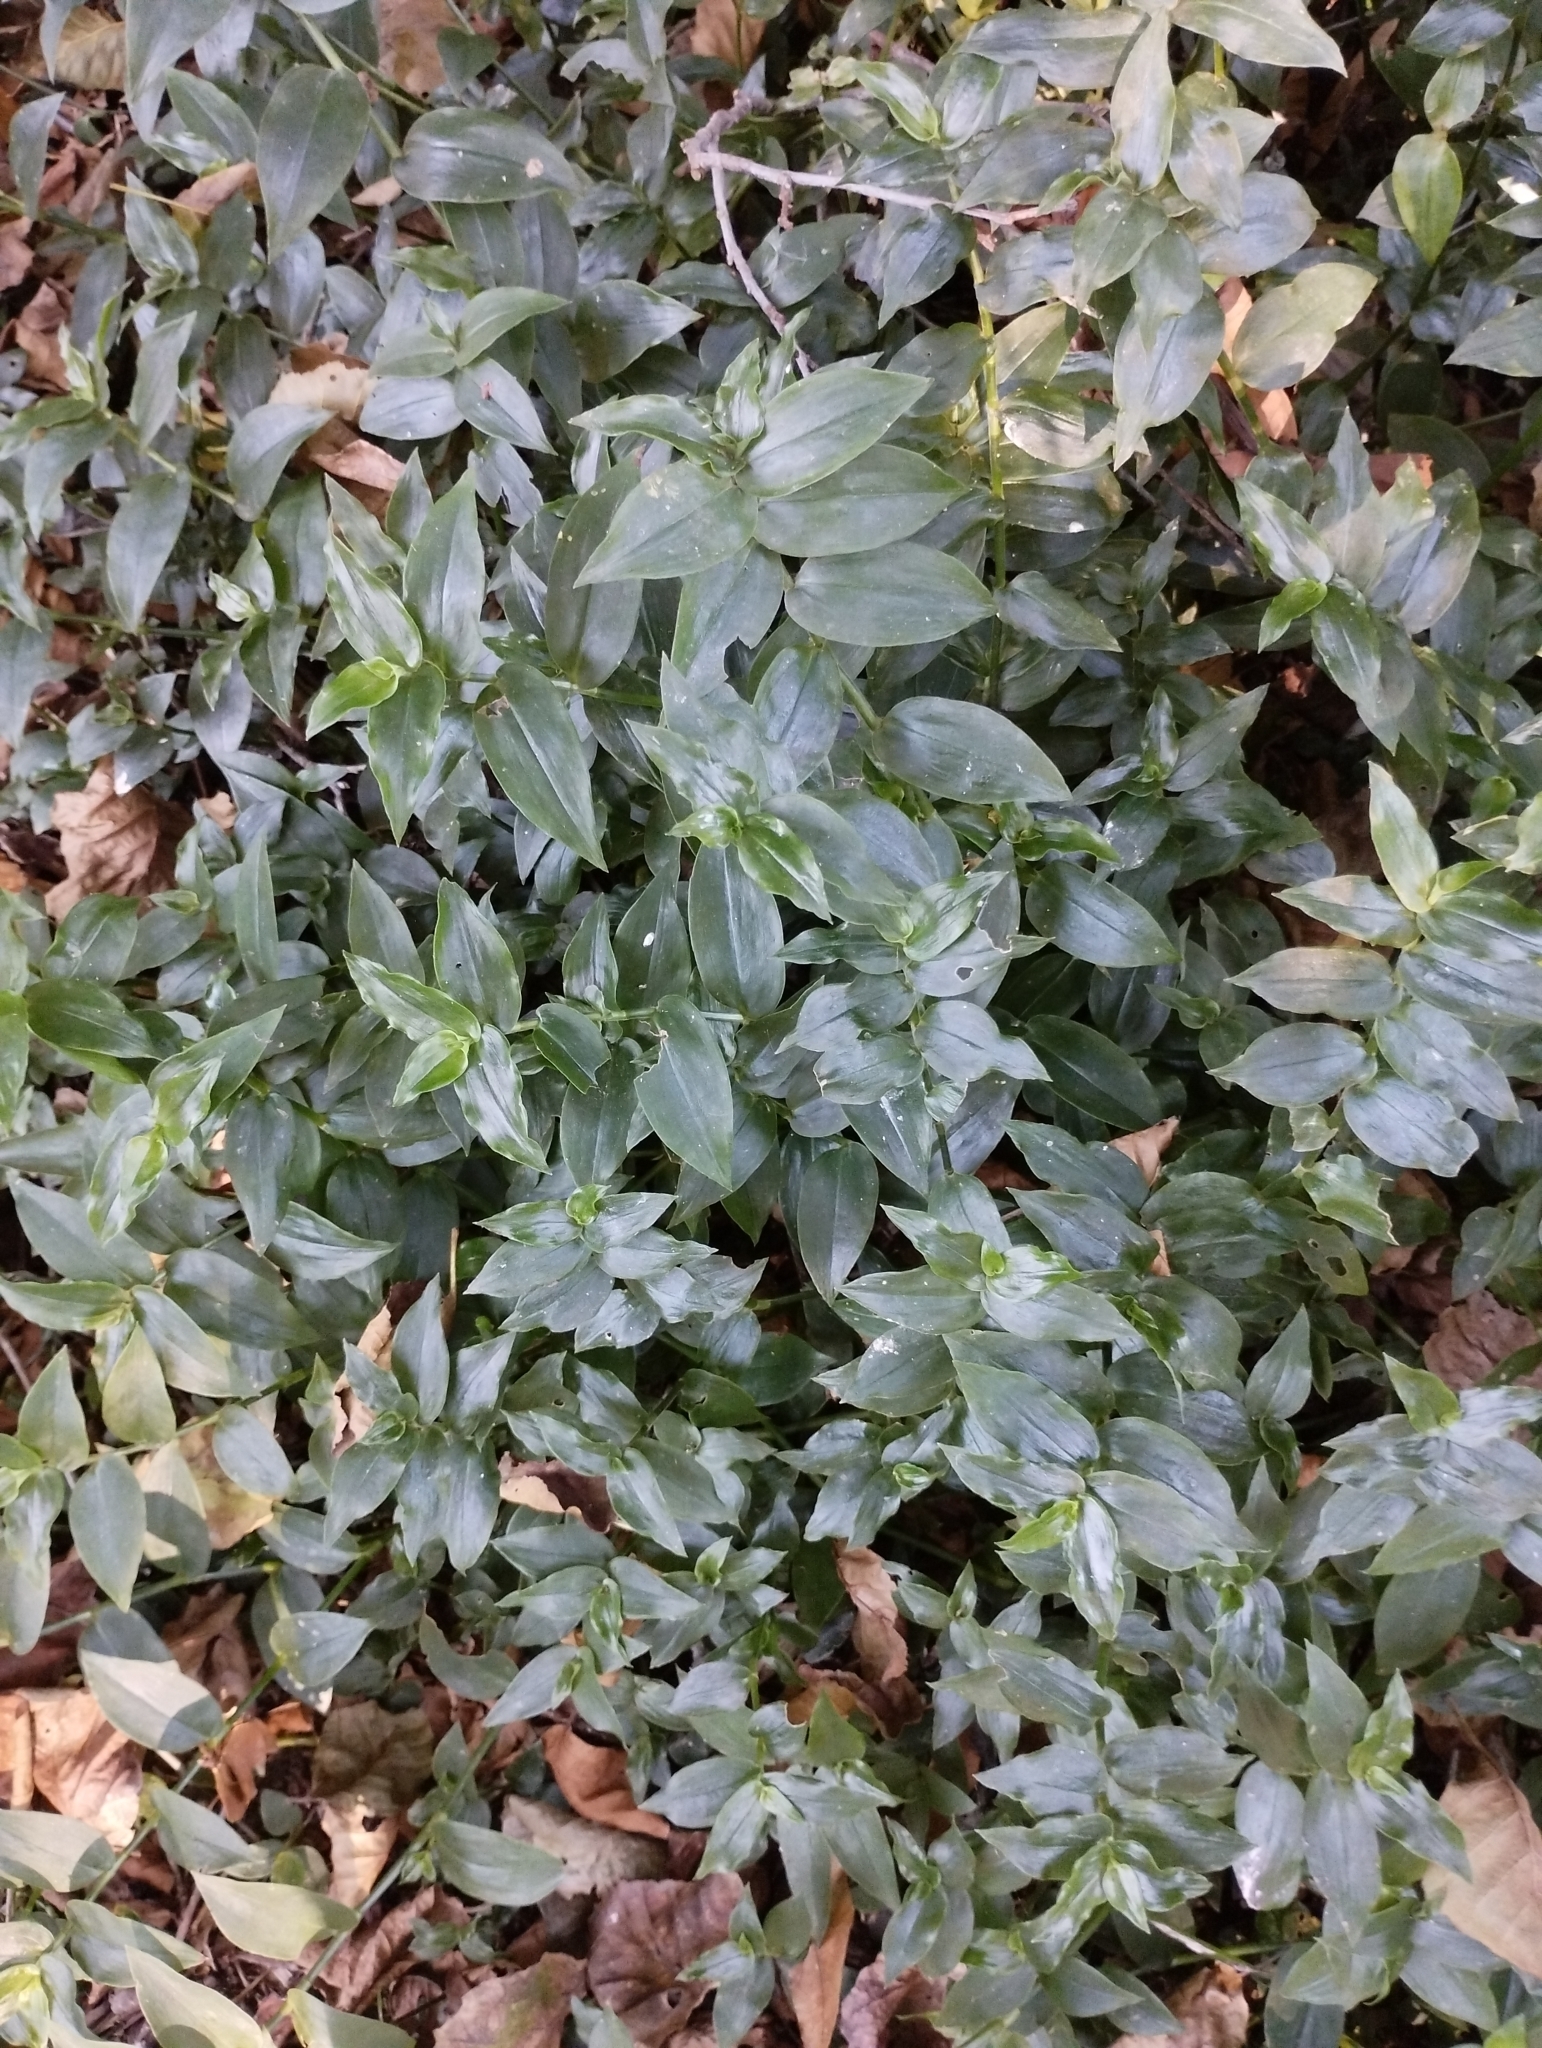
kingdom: Plantae
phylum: Tracheophyta
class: Liliopsida
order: Commelinales
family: Commelinaceae
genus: Tradescantia
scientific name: Tradescantia fluminensis
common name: Wandering-jew
